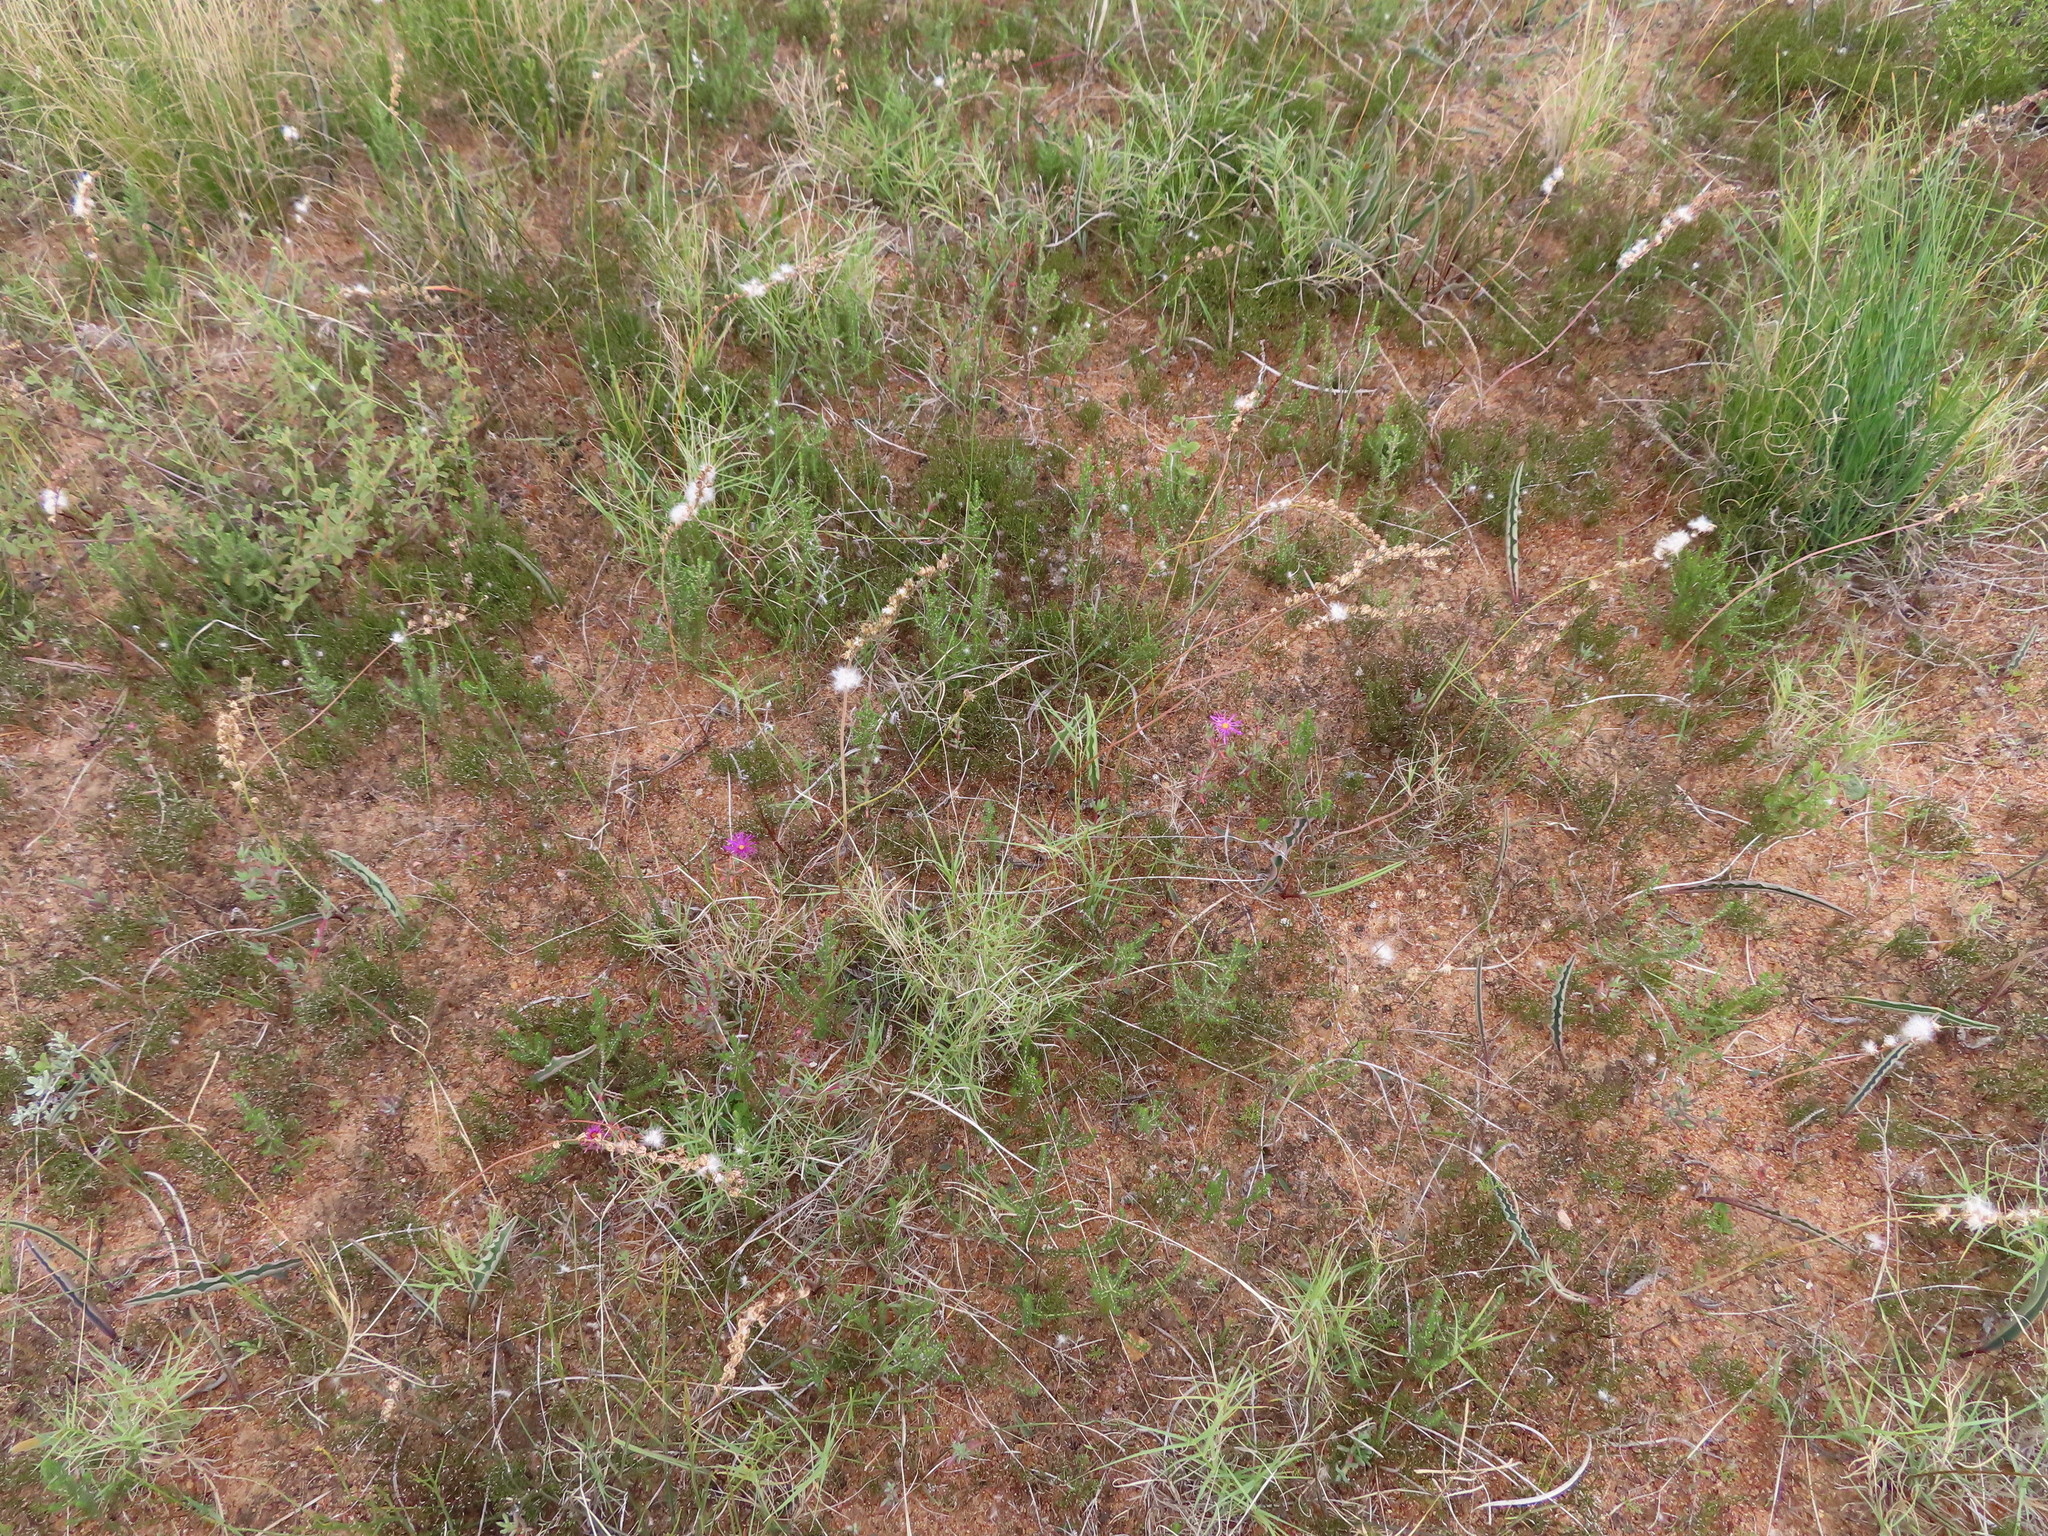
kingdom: Plantae
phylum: Tracheophyta
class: Liliopsida
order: Asparagales
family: Asparagaceae
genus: Eriospermum
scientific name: Eriospermum lanceifolium
